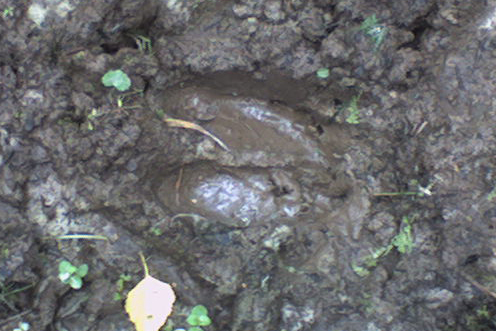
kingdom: Animalia
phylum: Chordata
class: Mammalia
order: Artiodactyla
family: Suidae
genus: Sus
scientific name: Sus scrofa
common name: Wild boar
